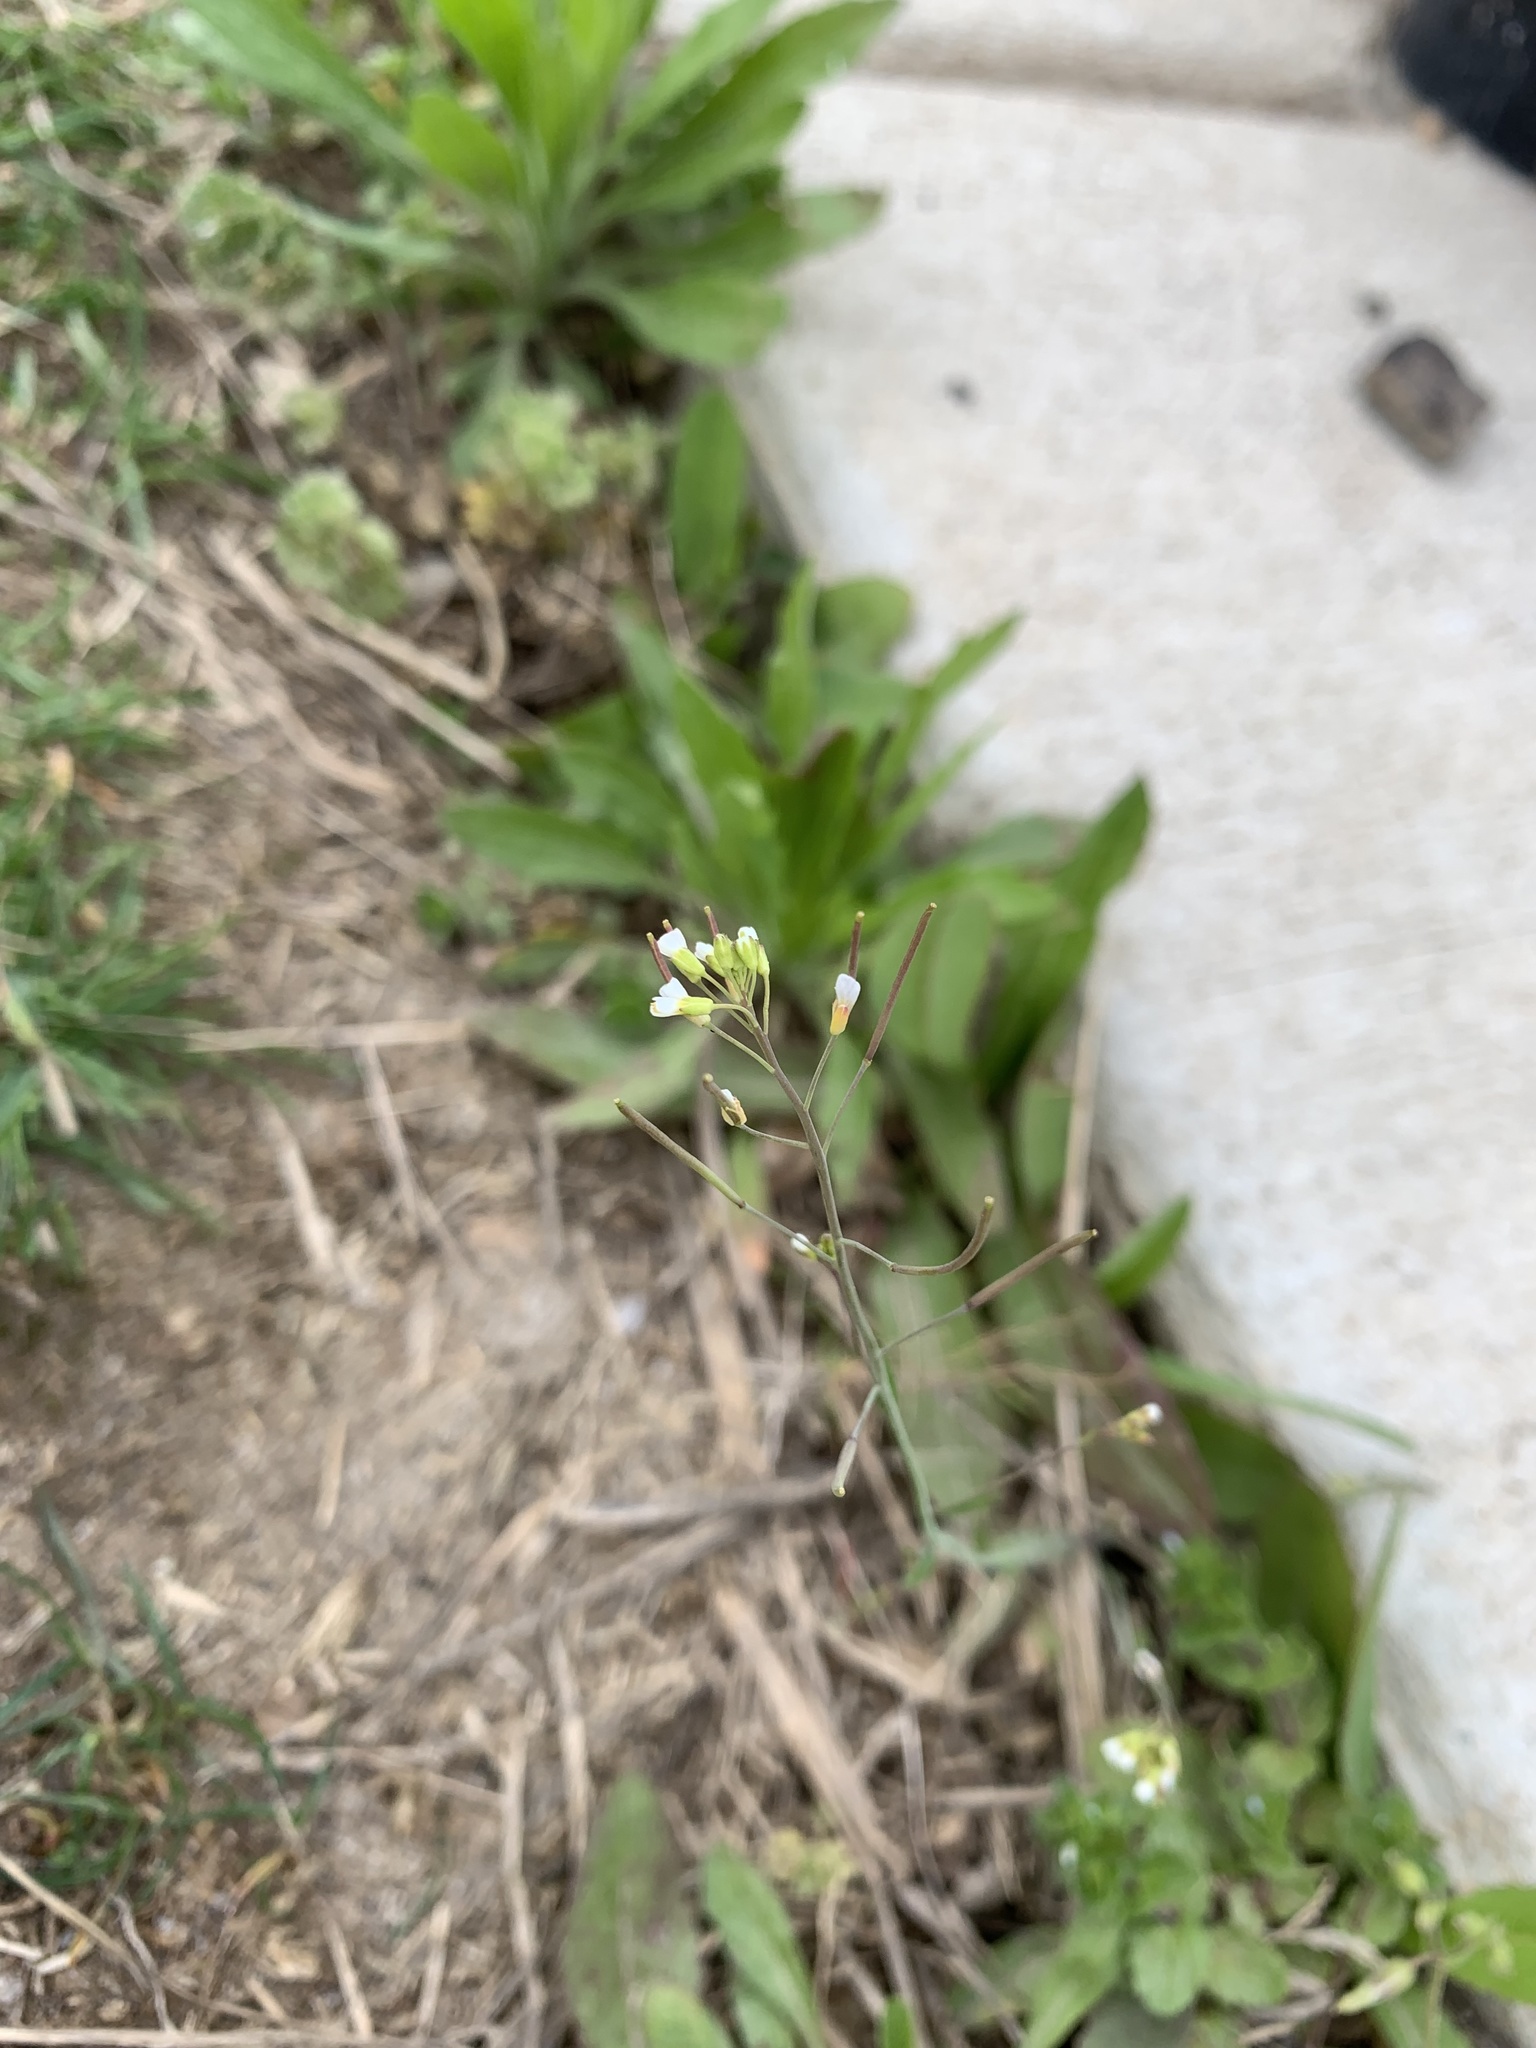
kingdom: Plantae
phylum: Tracheophyta
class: Magnoliopsida
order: Brassicales
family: Brassicaceae
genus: Arabidopsis
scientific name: Arabidopsis thaliana
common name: Thale cress
